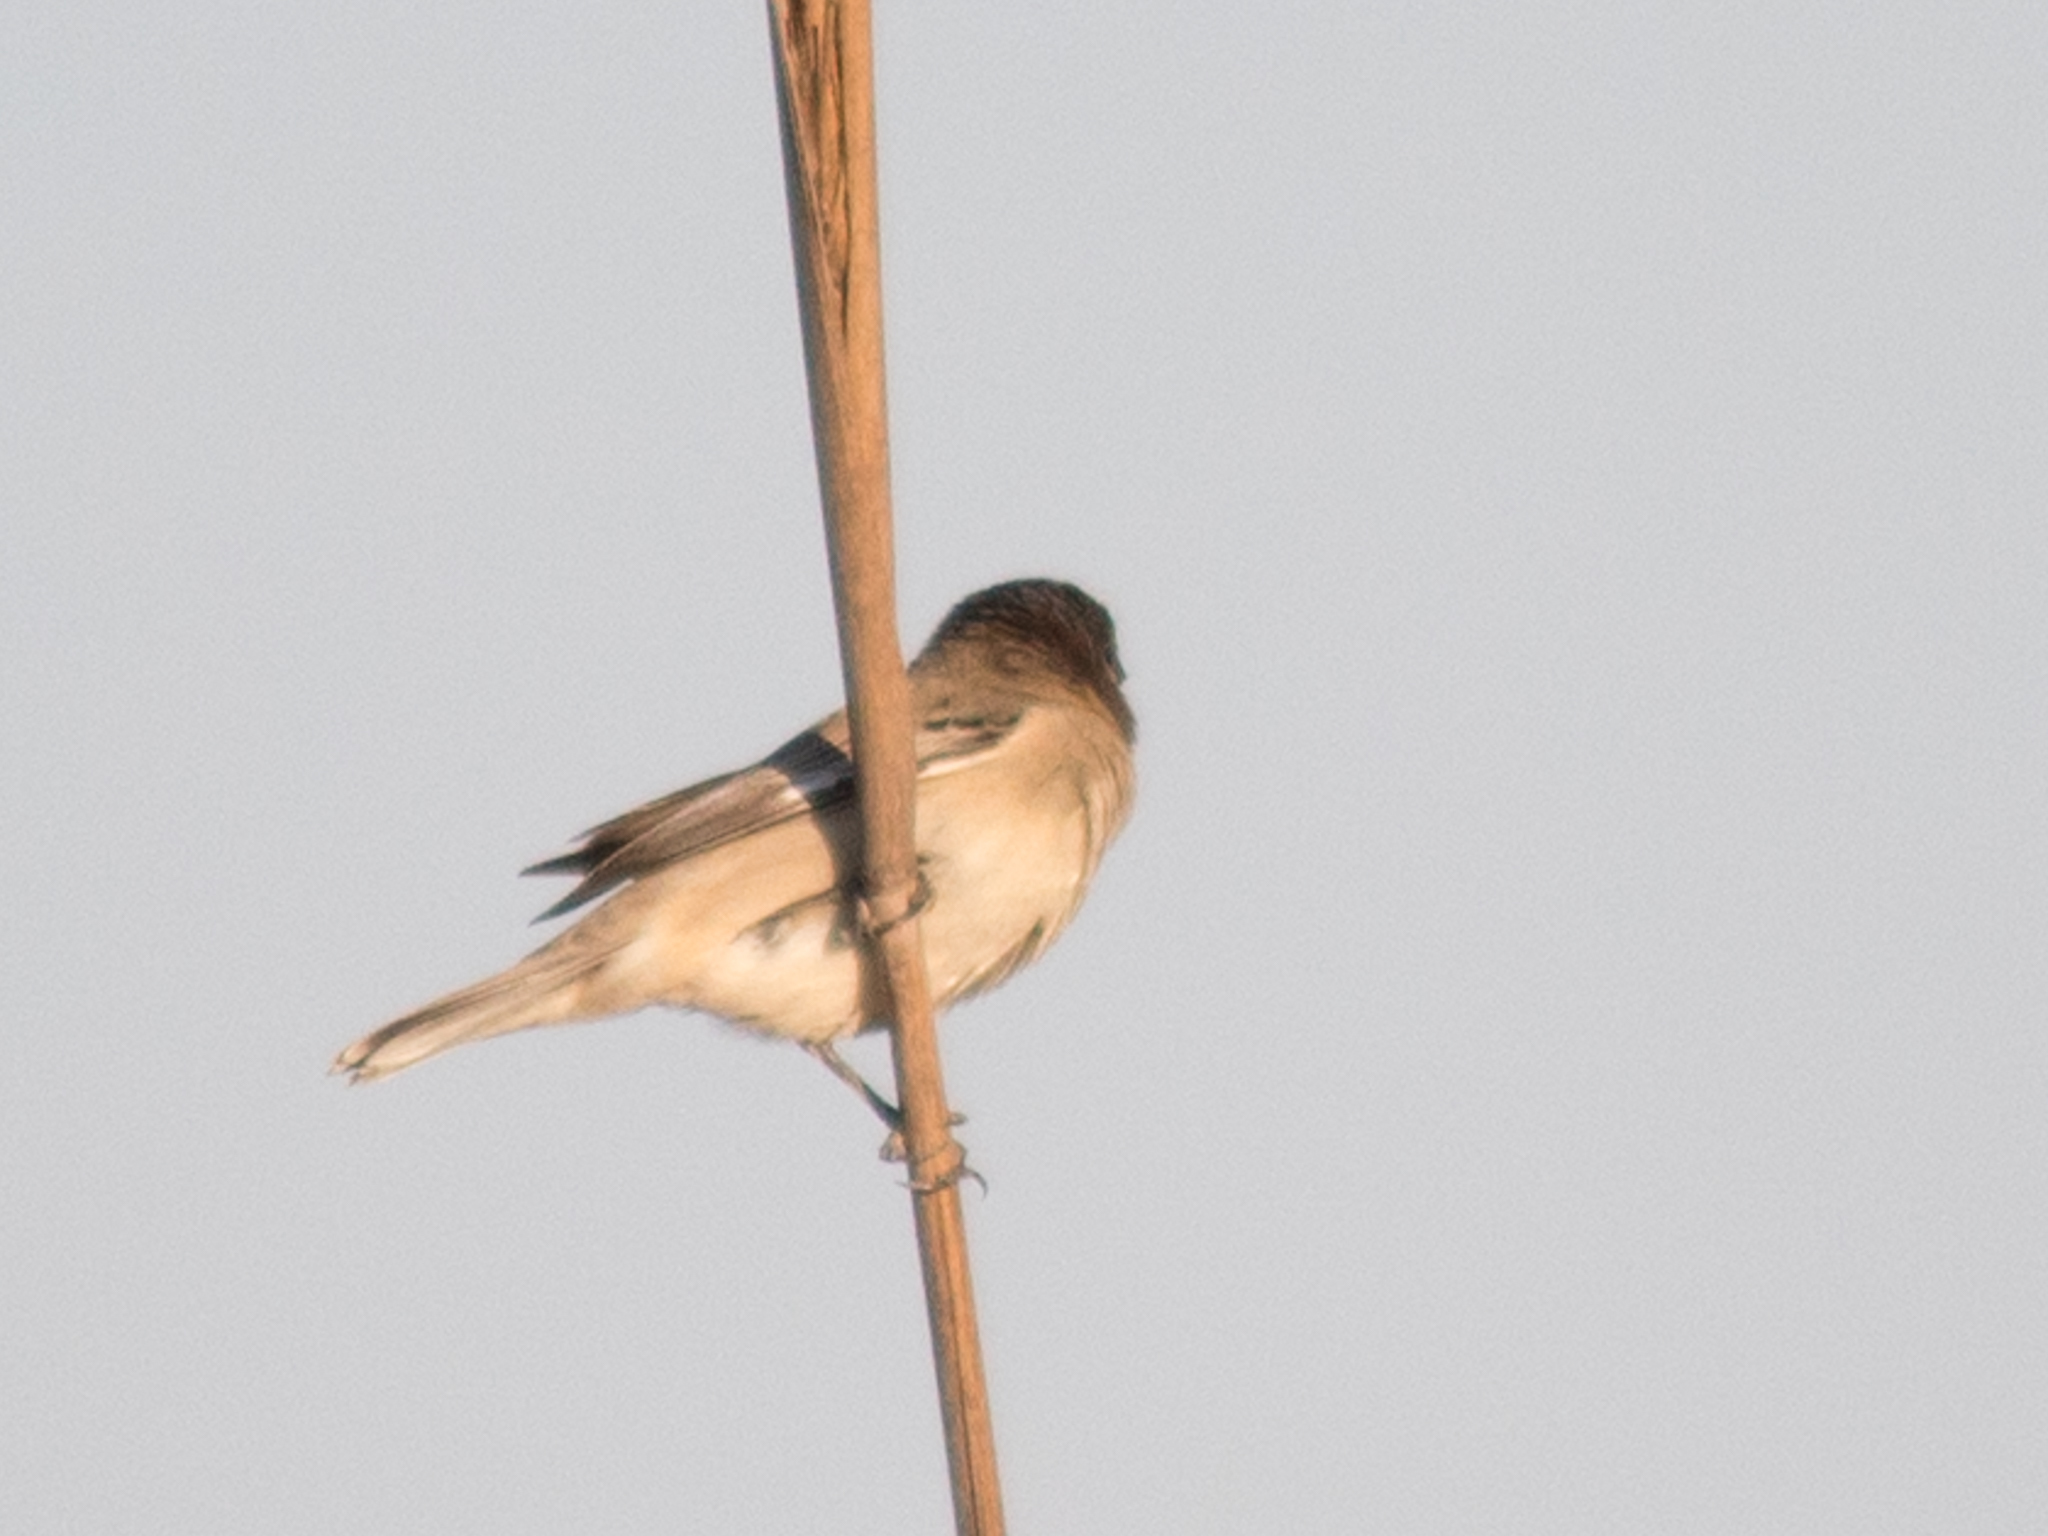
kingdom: Animalia
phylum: Chordata
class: Aves
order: Passeriformes
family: Thraupidae
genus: Sporophila
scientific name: Sporophila cinnamomea
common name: Chestnut seedeater
